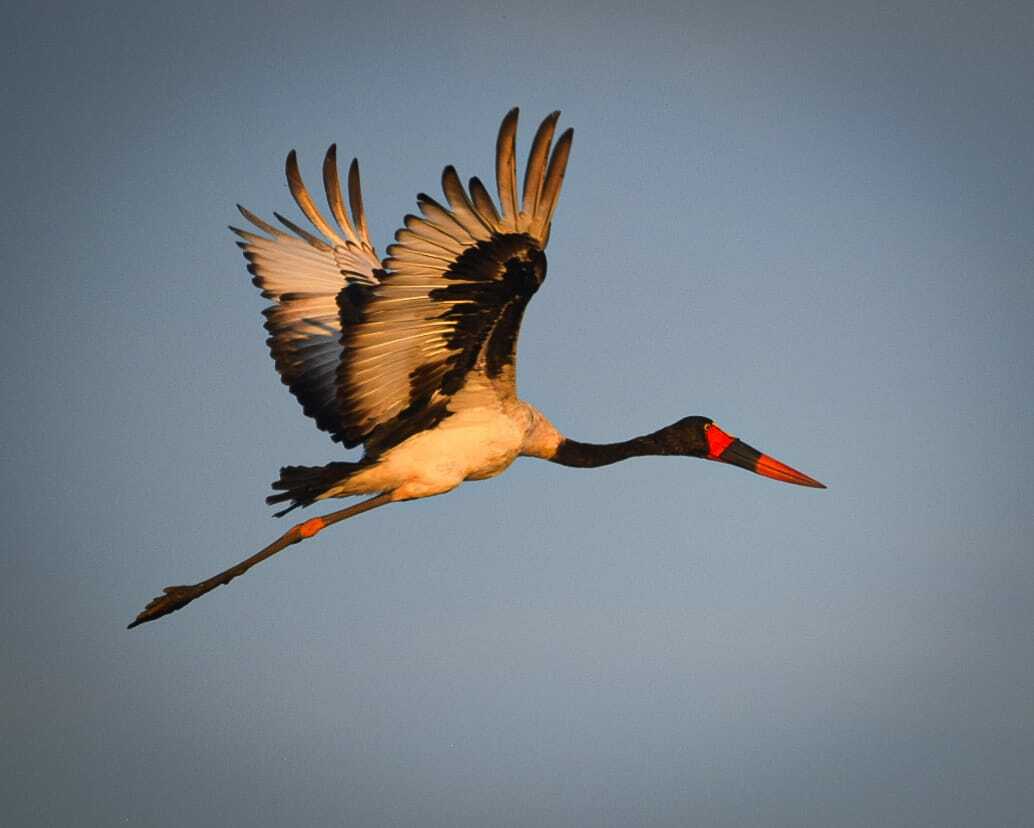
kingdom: Animalia
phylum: Chordata
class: Aves
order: Ciconiiformes
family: Ciconiidae
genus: Ephippiorhynchus
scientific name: Ephippiorhynchus senegalensis
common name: Saddle-billed stork
